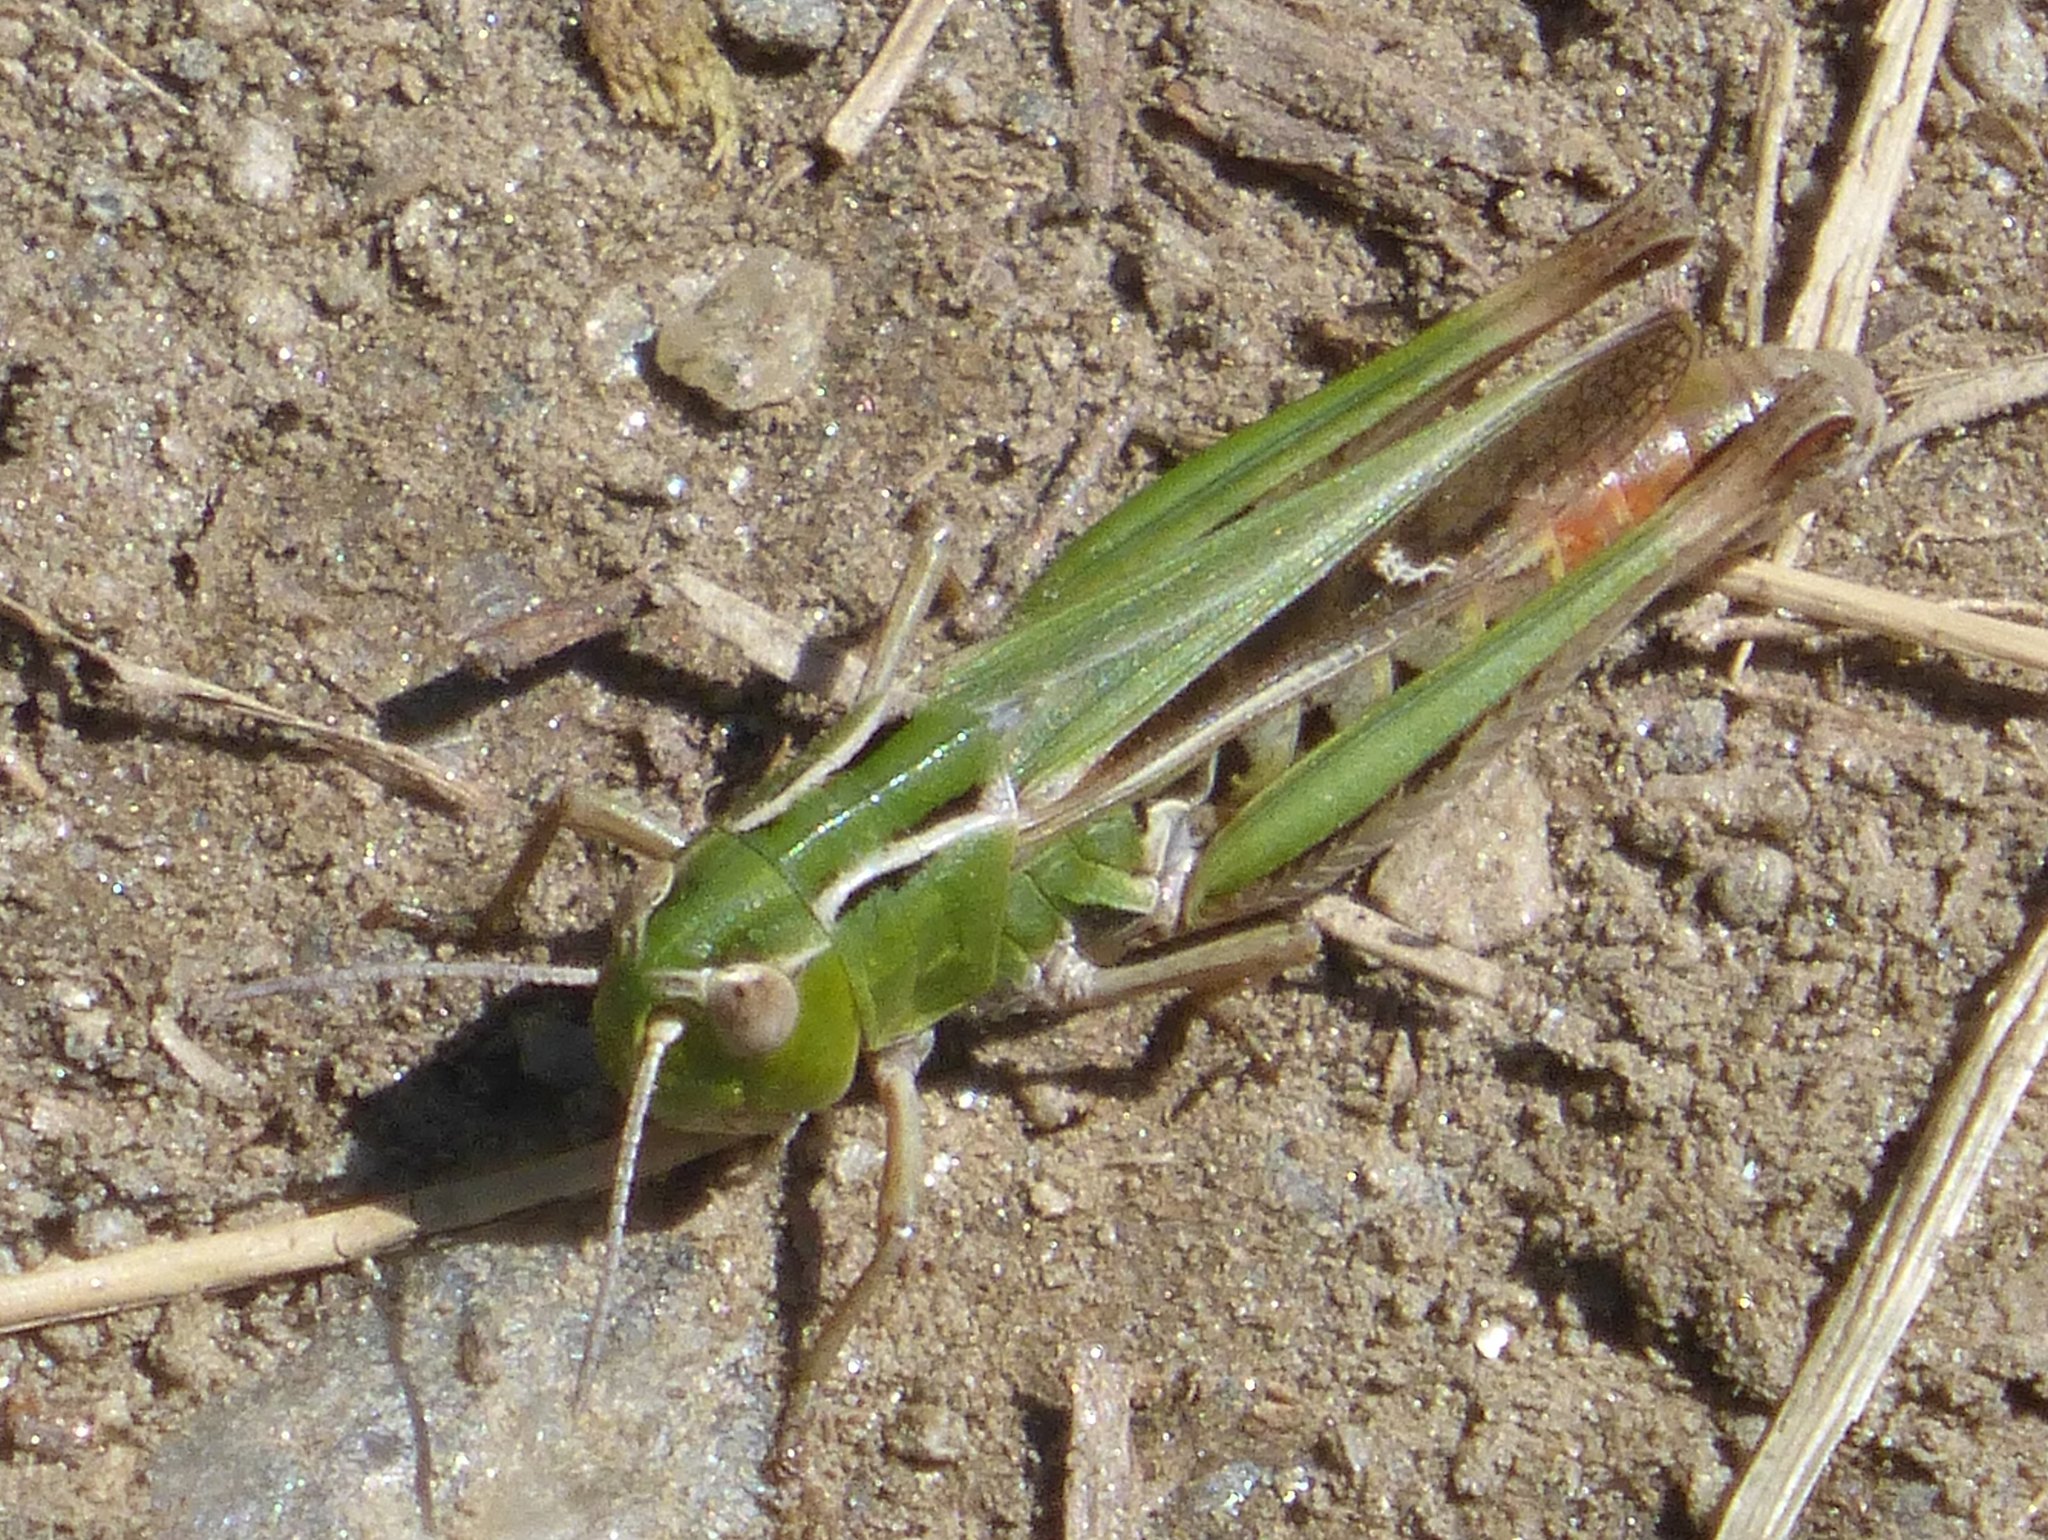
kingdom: Animalia
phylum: Arthropoda
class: Insecta
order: Orthoptera
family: Acrididae
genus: Stenobothrus
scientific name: Stenobothrus lineatus
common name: Stripe-winged grasshopper
